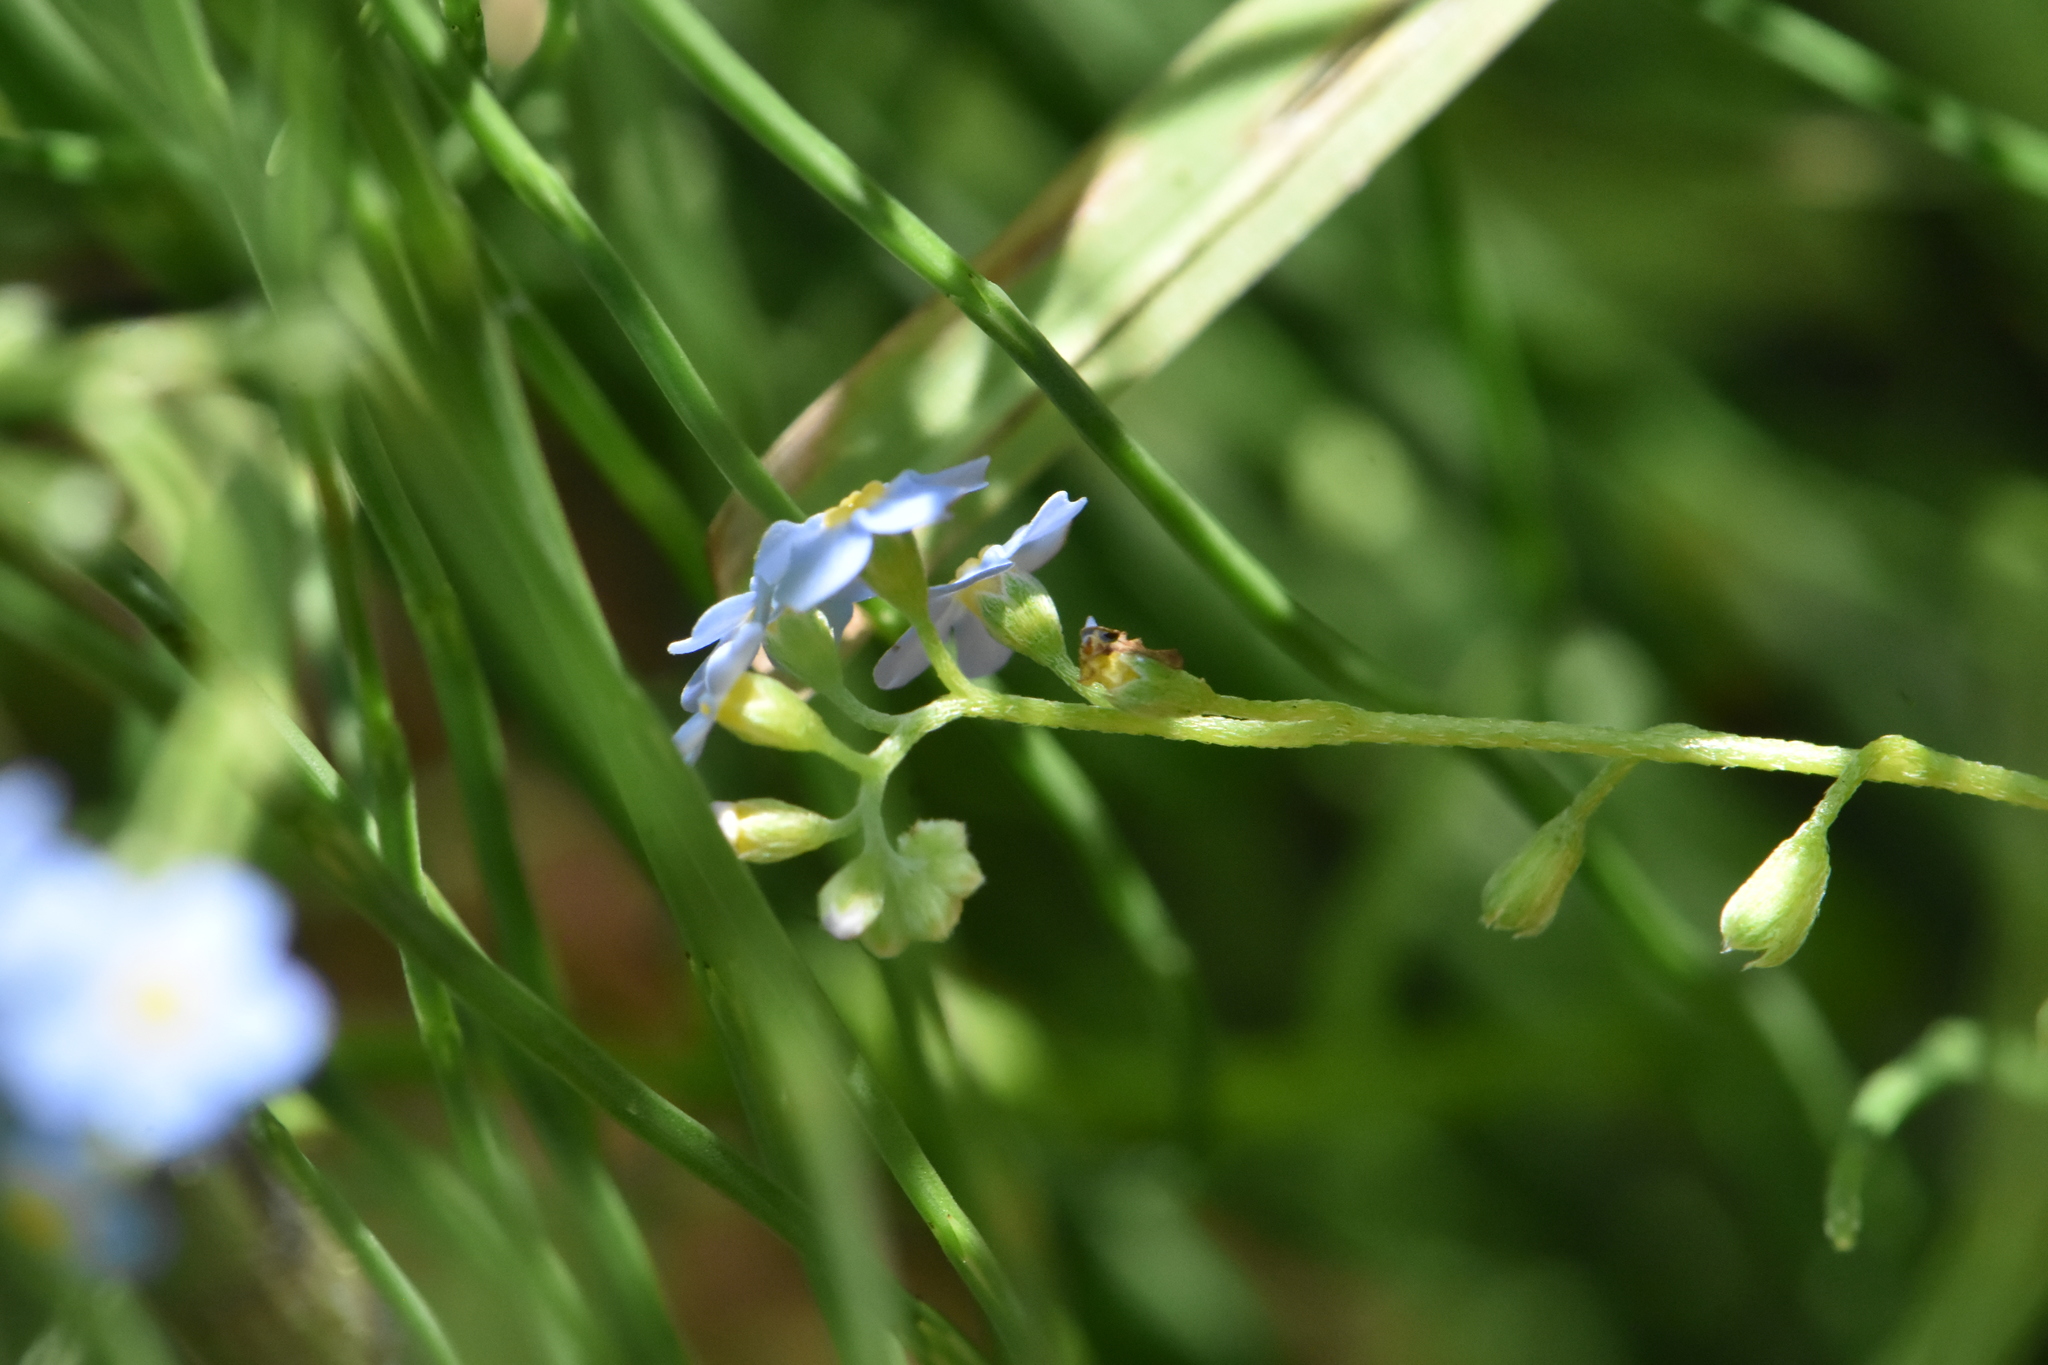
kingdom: Plantae
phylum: Tracheophyta
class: Magnoliopsida
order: Boraginales
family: Boraginaceae
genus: Myosotis
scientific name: Myosotis scorpioides
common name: Water forget-me-not
